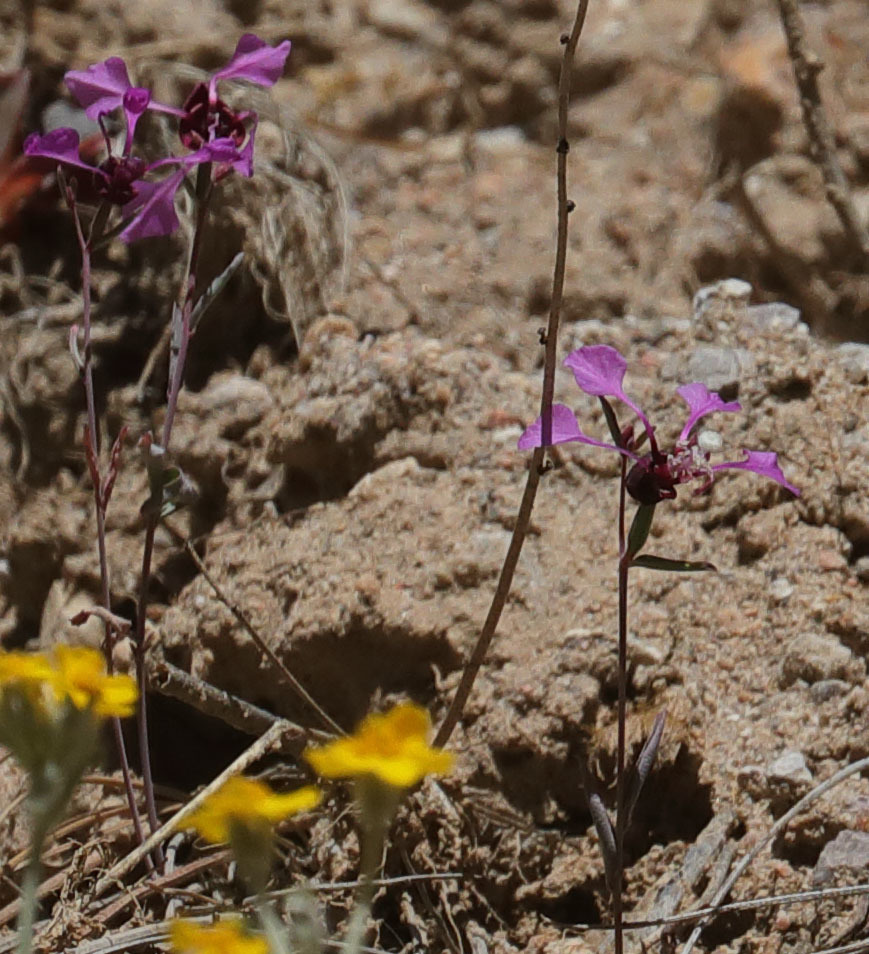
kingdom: Plantae
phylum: Tracheophyta
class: Magnoliopsida
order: Myrtales
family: Onagraceae
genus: Clarkia
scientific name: Clarkia unguiculata
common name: Clarkia
